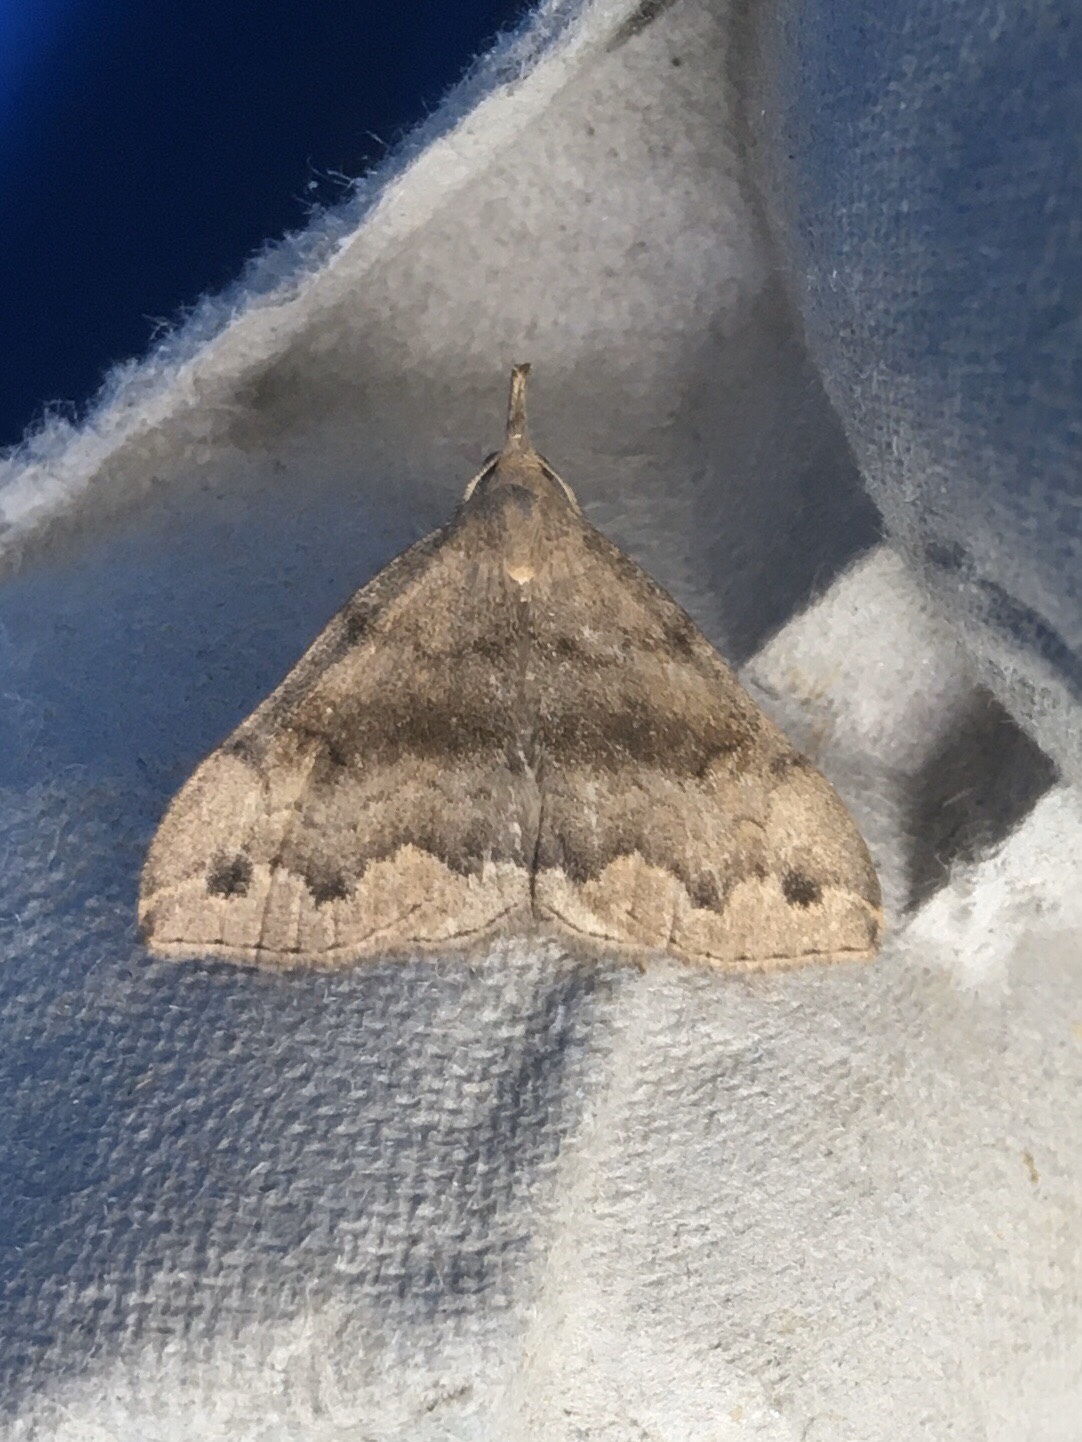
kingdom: Animalia
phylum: Arthropoda
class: Insecta
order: Lepidoptera
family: Erebidae
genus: Phalaenostola
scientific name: Phalaenostola eumelusalis
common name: Dark phalaenostola moth
